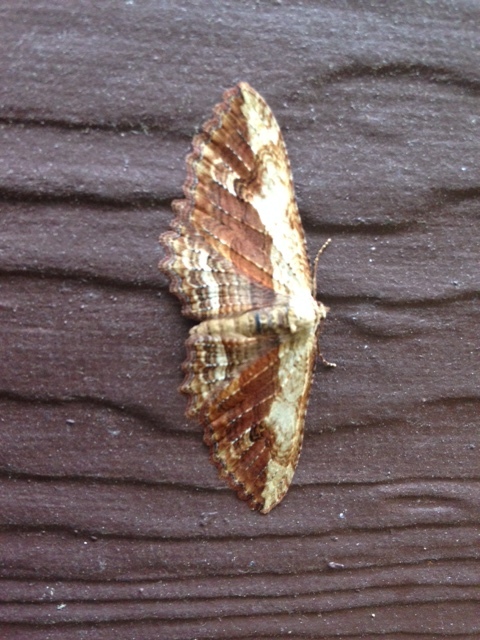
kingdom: Animalia
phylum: Arthropoda
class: Insecta
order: Lepidoptera
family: Geometridae
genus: Austrocidaria
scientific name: Austrocidaria bipartita
